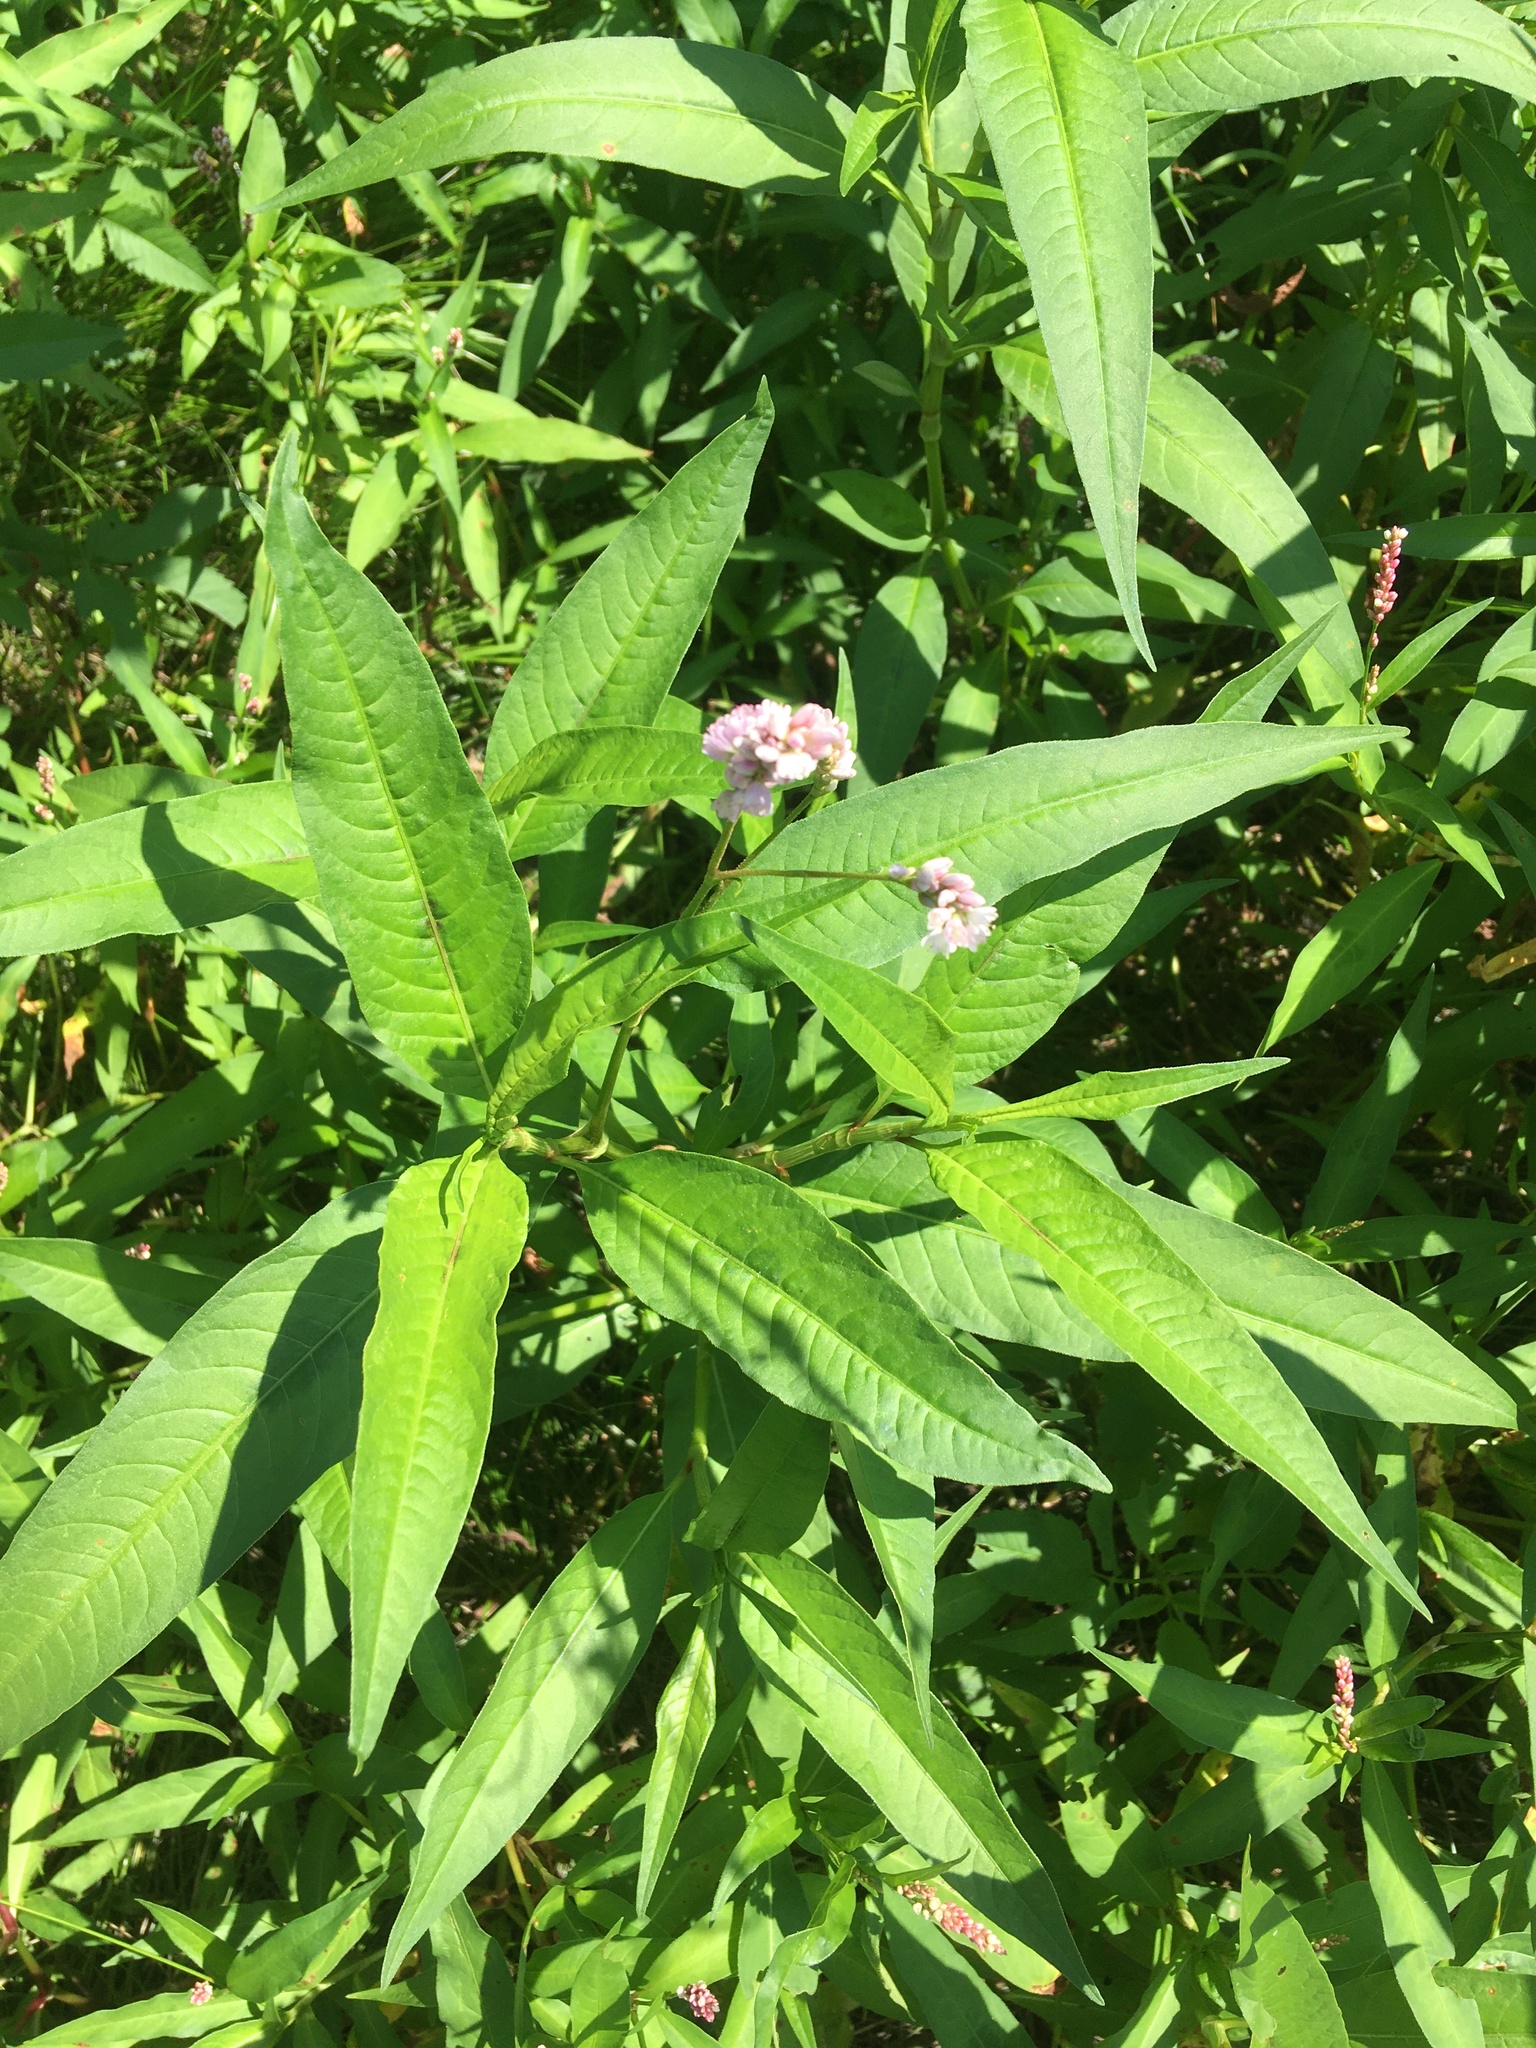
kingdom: Plantae
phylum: Tracheophyta
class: Magnoliopsida
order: Caryophyllales
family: Polygonaceae
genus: Persicaria
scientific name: Persicaria pensylvanica
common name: Pinkweed
